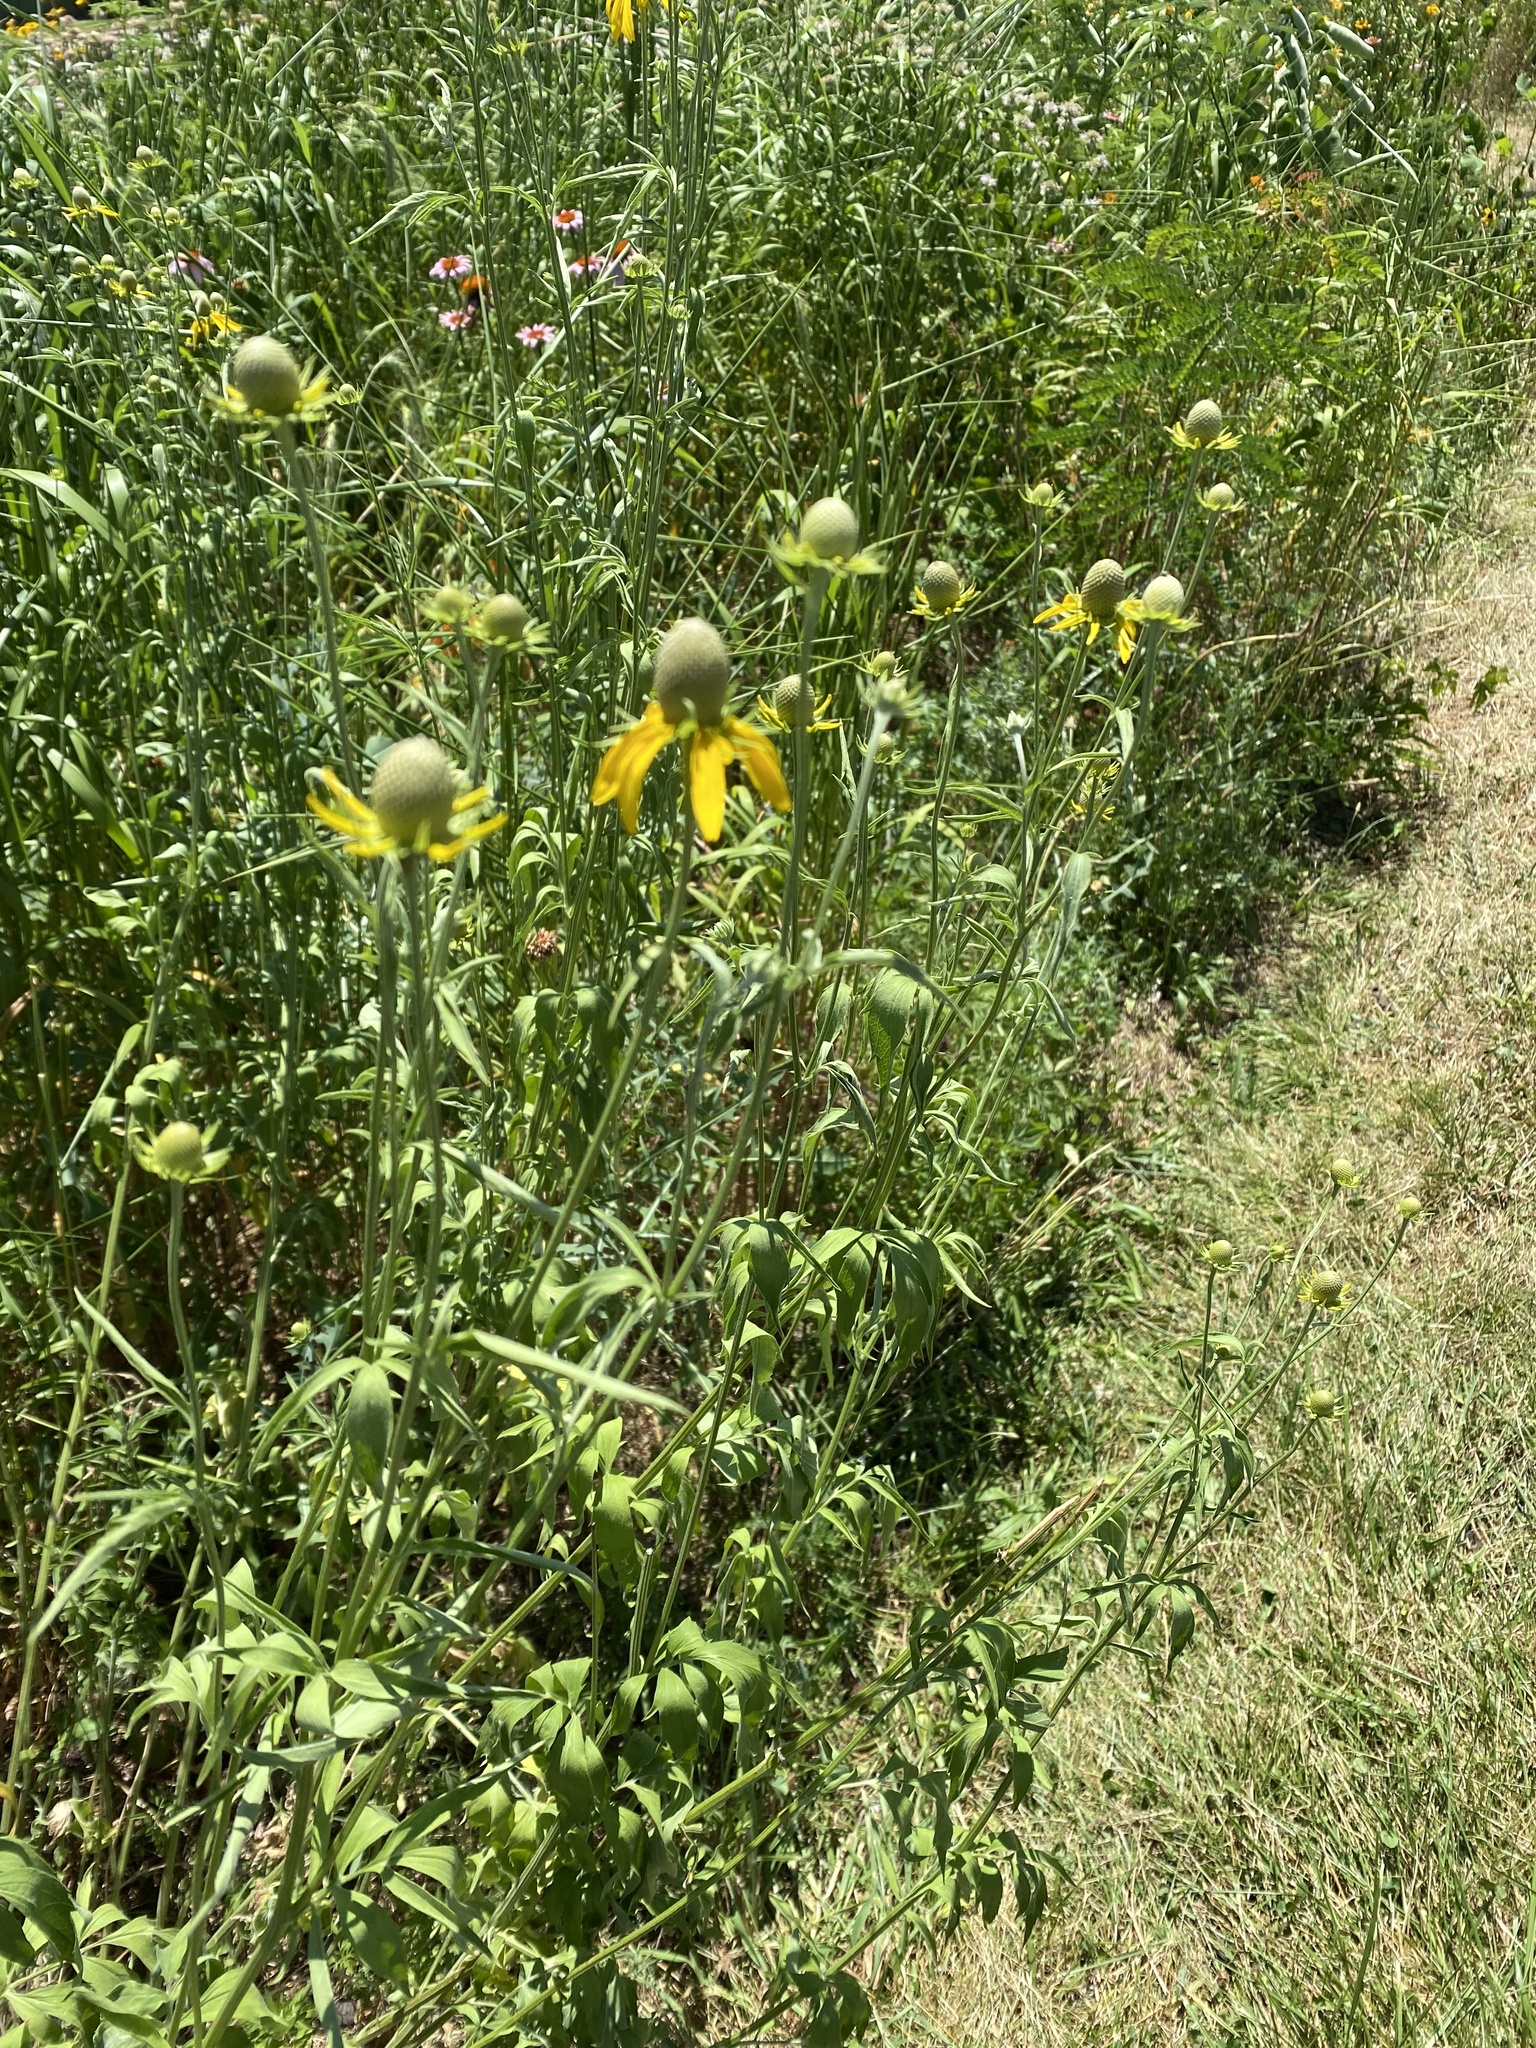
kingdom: Plantae
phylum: Tracheophyta
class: Magnoliopsida
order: Asterales
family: Asteraceae
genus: Ratibida
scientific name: Ratibida pinnata
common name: Drooping prairie-coneflower
